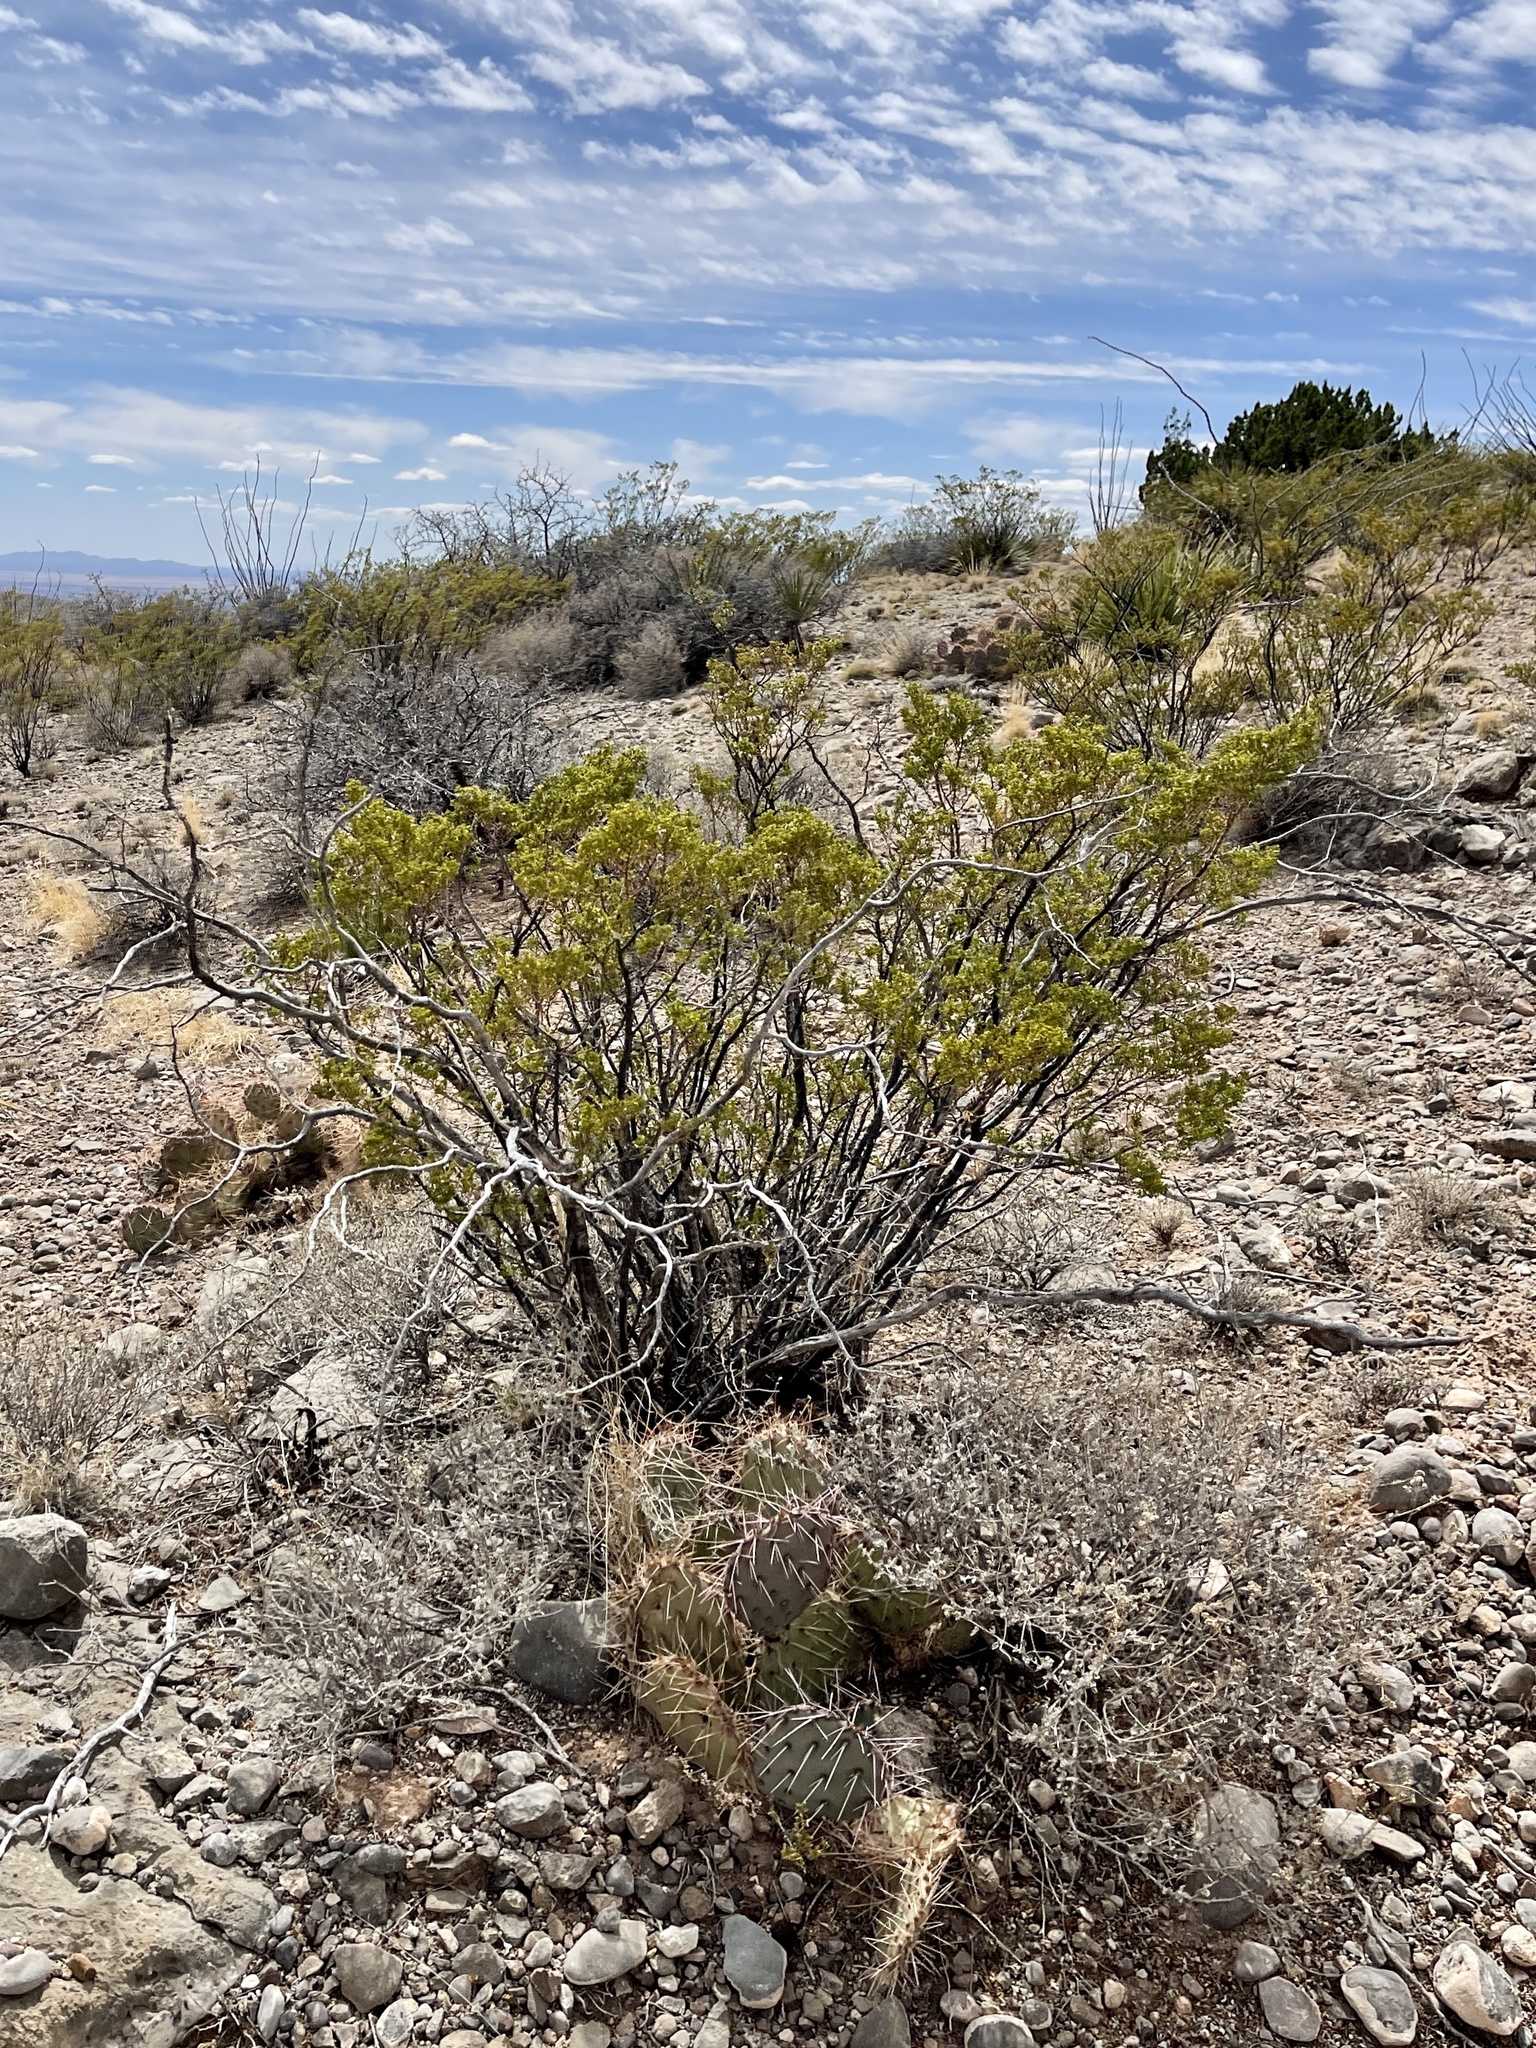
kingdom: Plantae
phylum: Tracheophyta
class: Magnoliopsida
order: Zygophyllales
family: Zygophyllaceae
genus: Larrea
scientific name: Larrea tridentata
